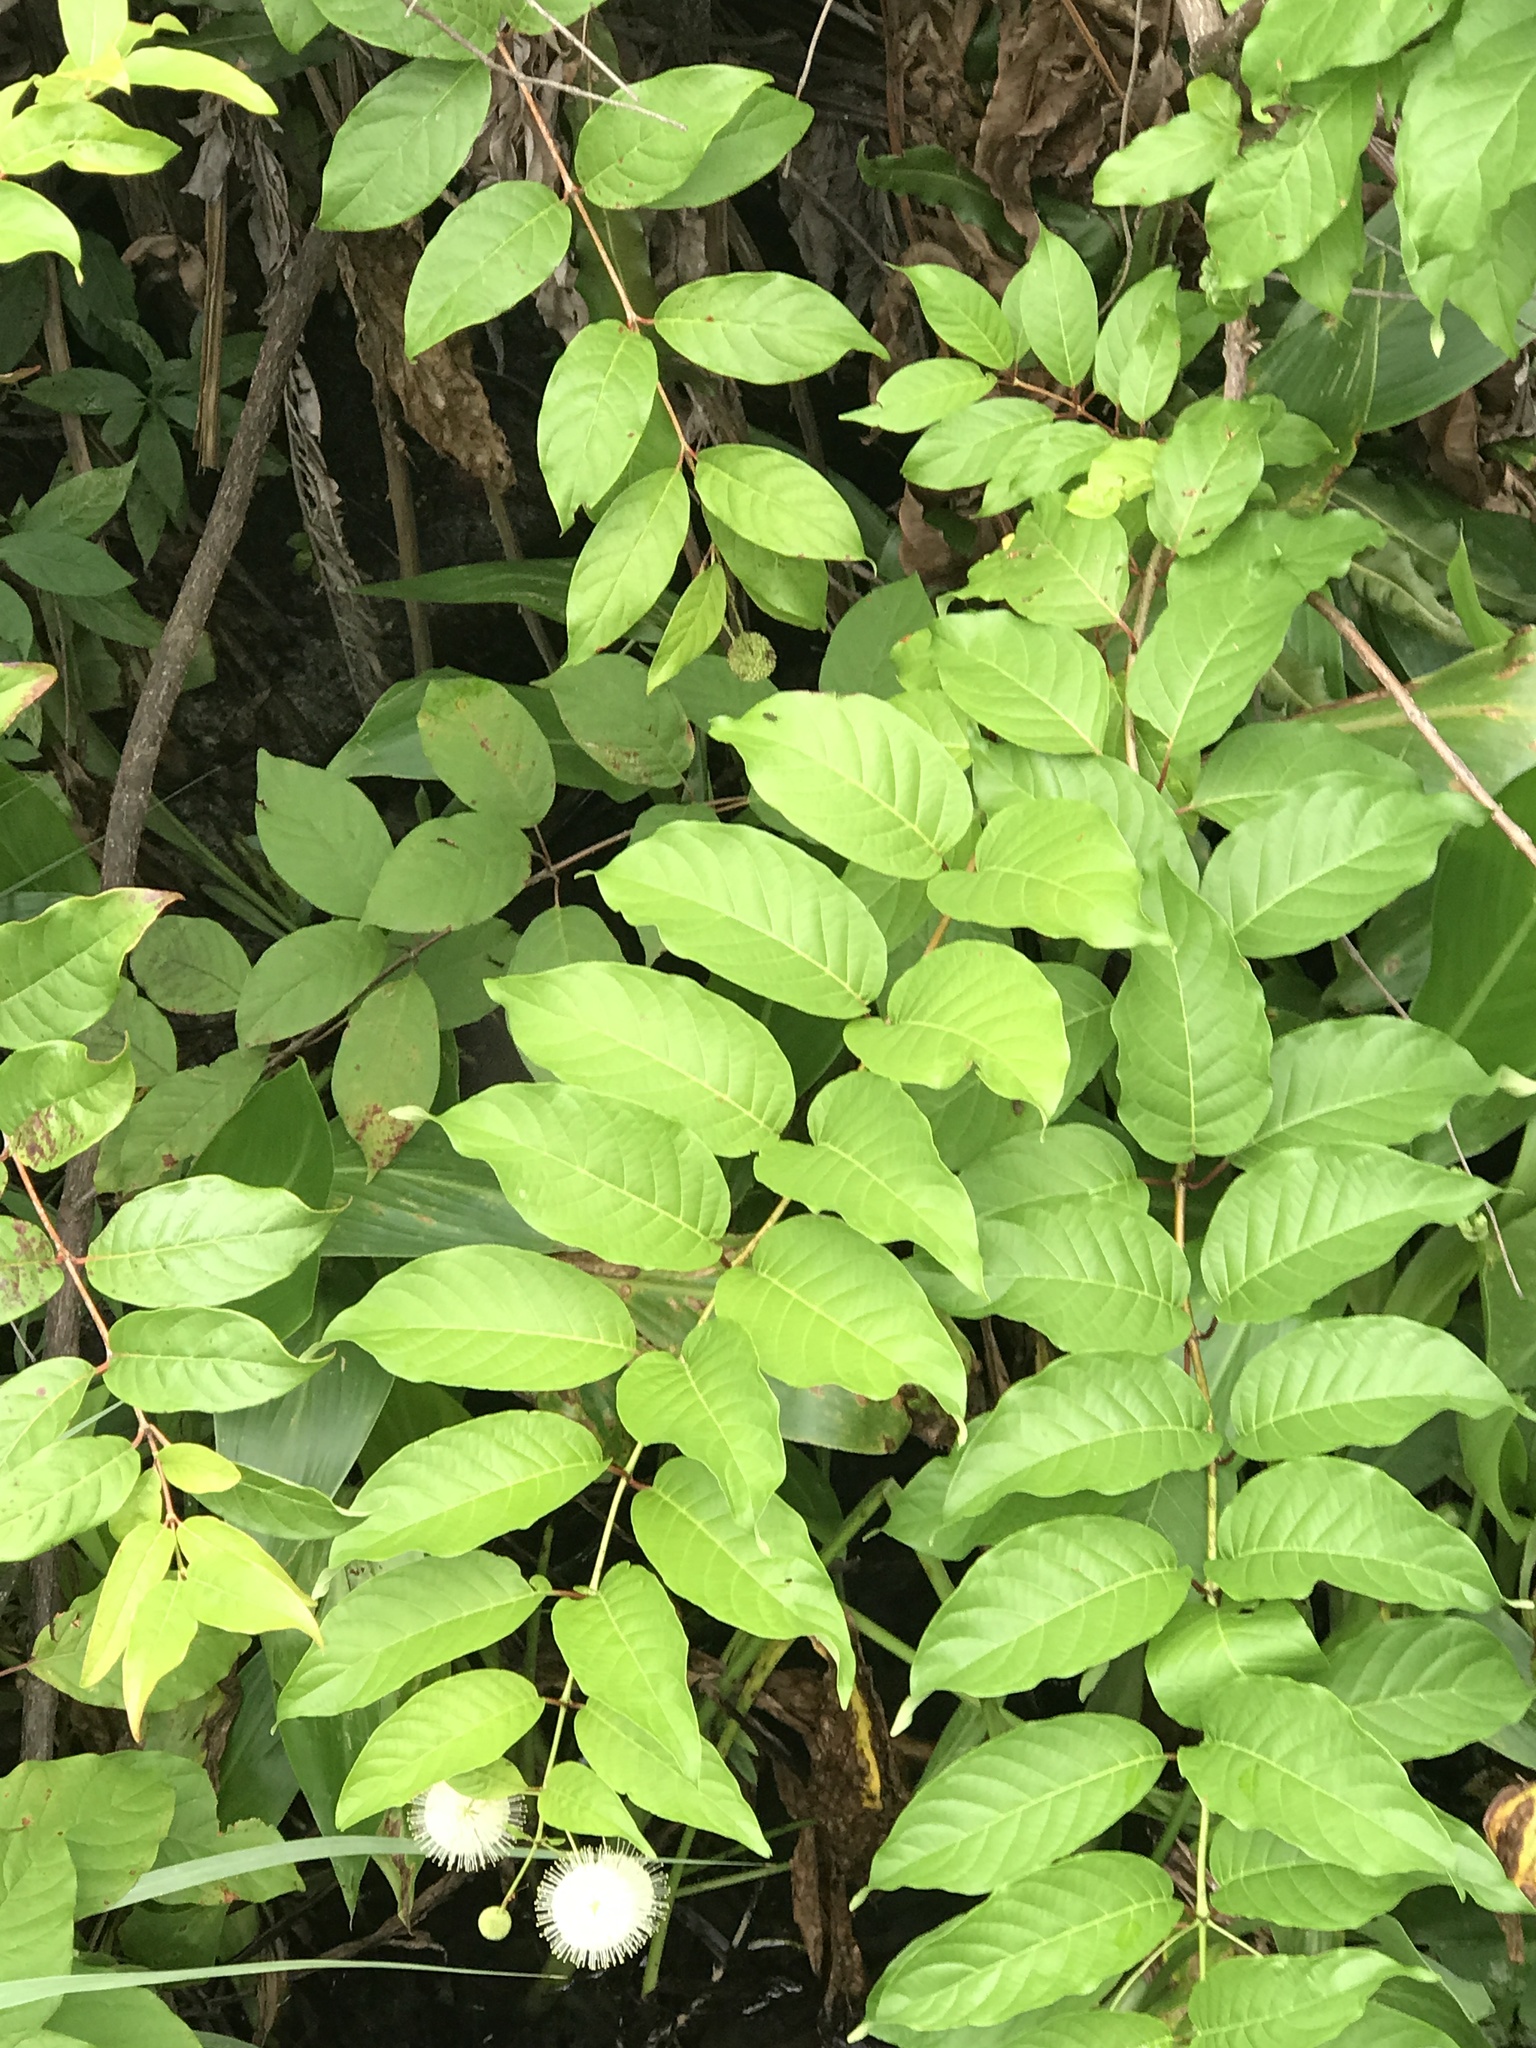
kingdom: Plantae
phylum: Tracheophyta
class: Magnoliopsida
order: Gentianales
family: Rubiaceae
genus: Cephalanthus
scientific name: Cephalanthus occidentalis
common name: Button-willow
